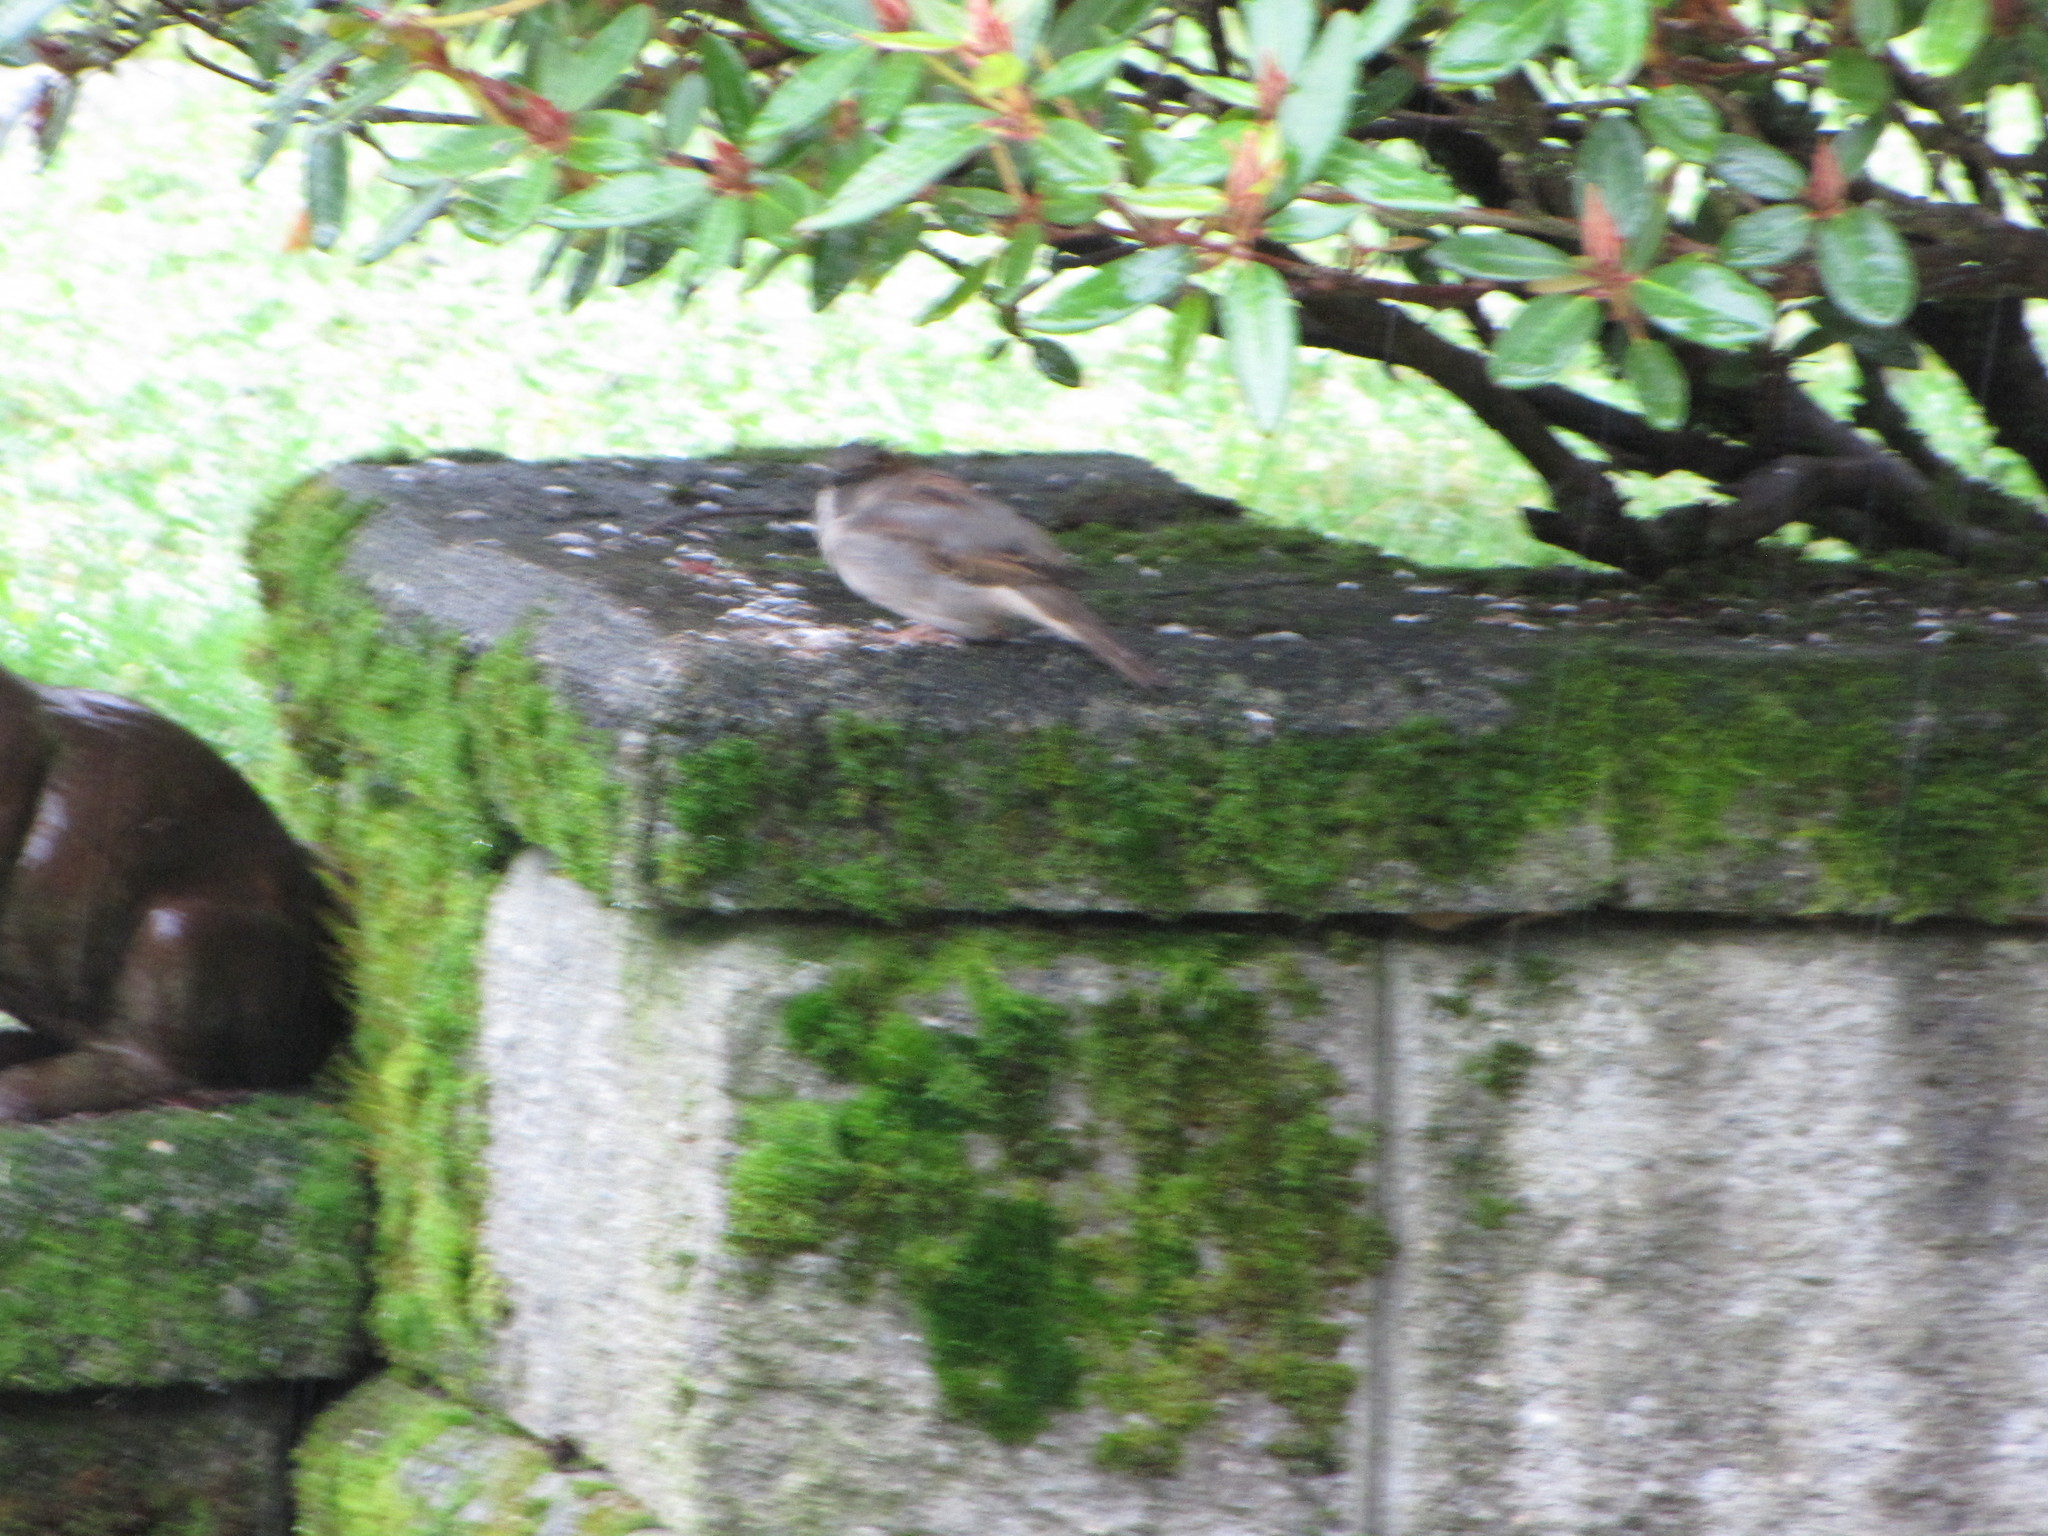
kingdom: Animalia
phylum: Chordata
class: Aves
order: Passeriformes
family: Passeridae
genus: Passer
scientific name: Passer domesticus
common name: House sparrow
